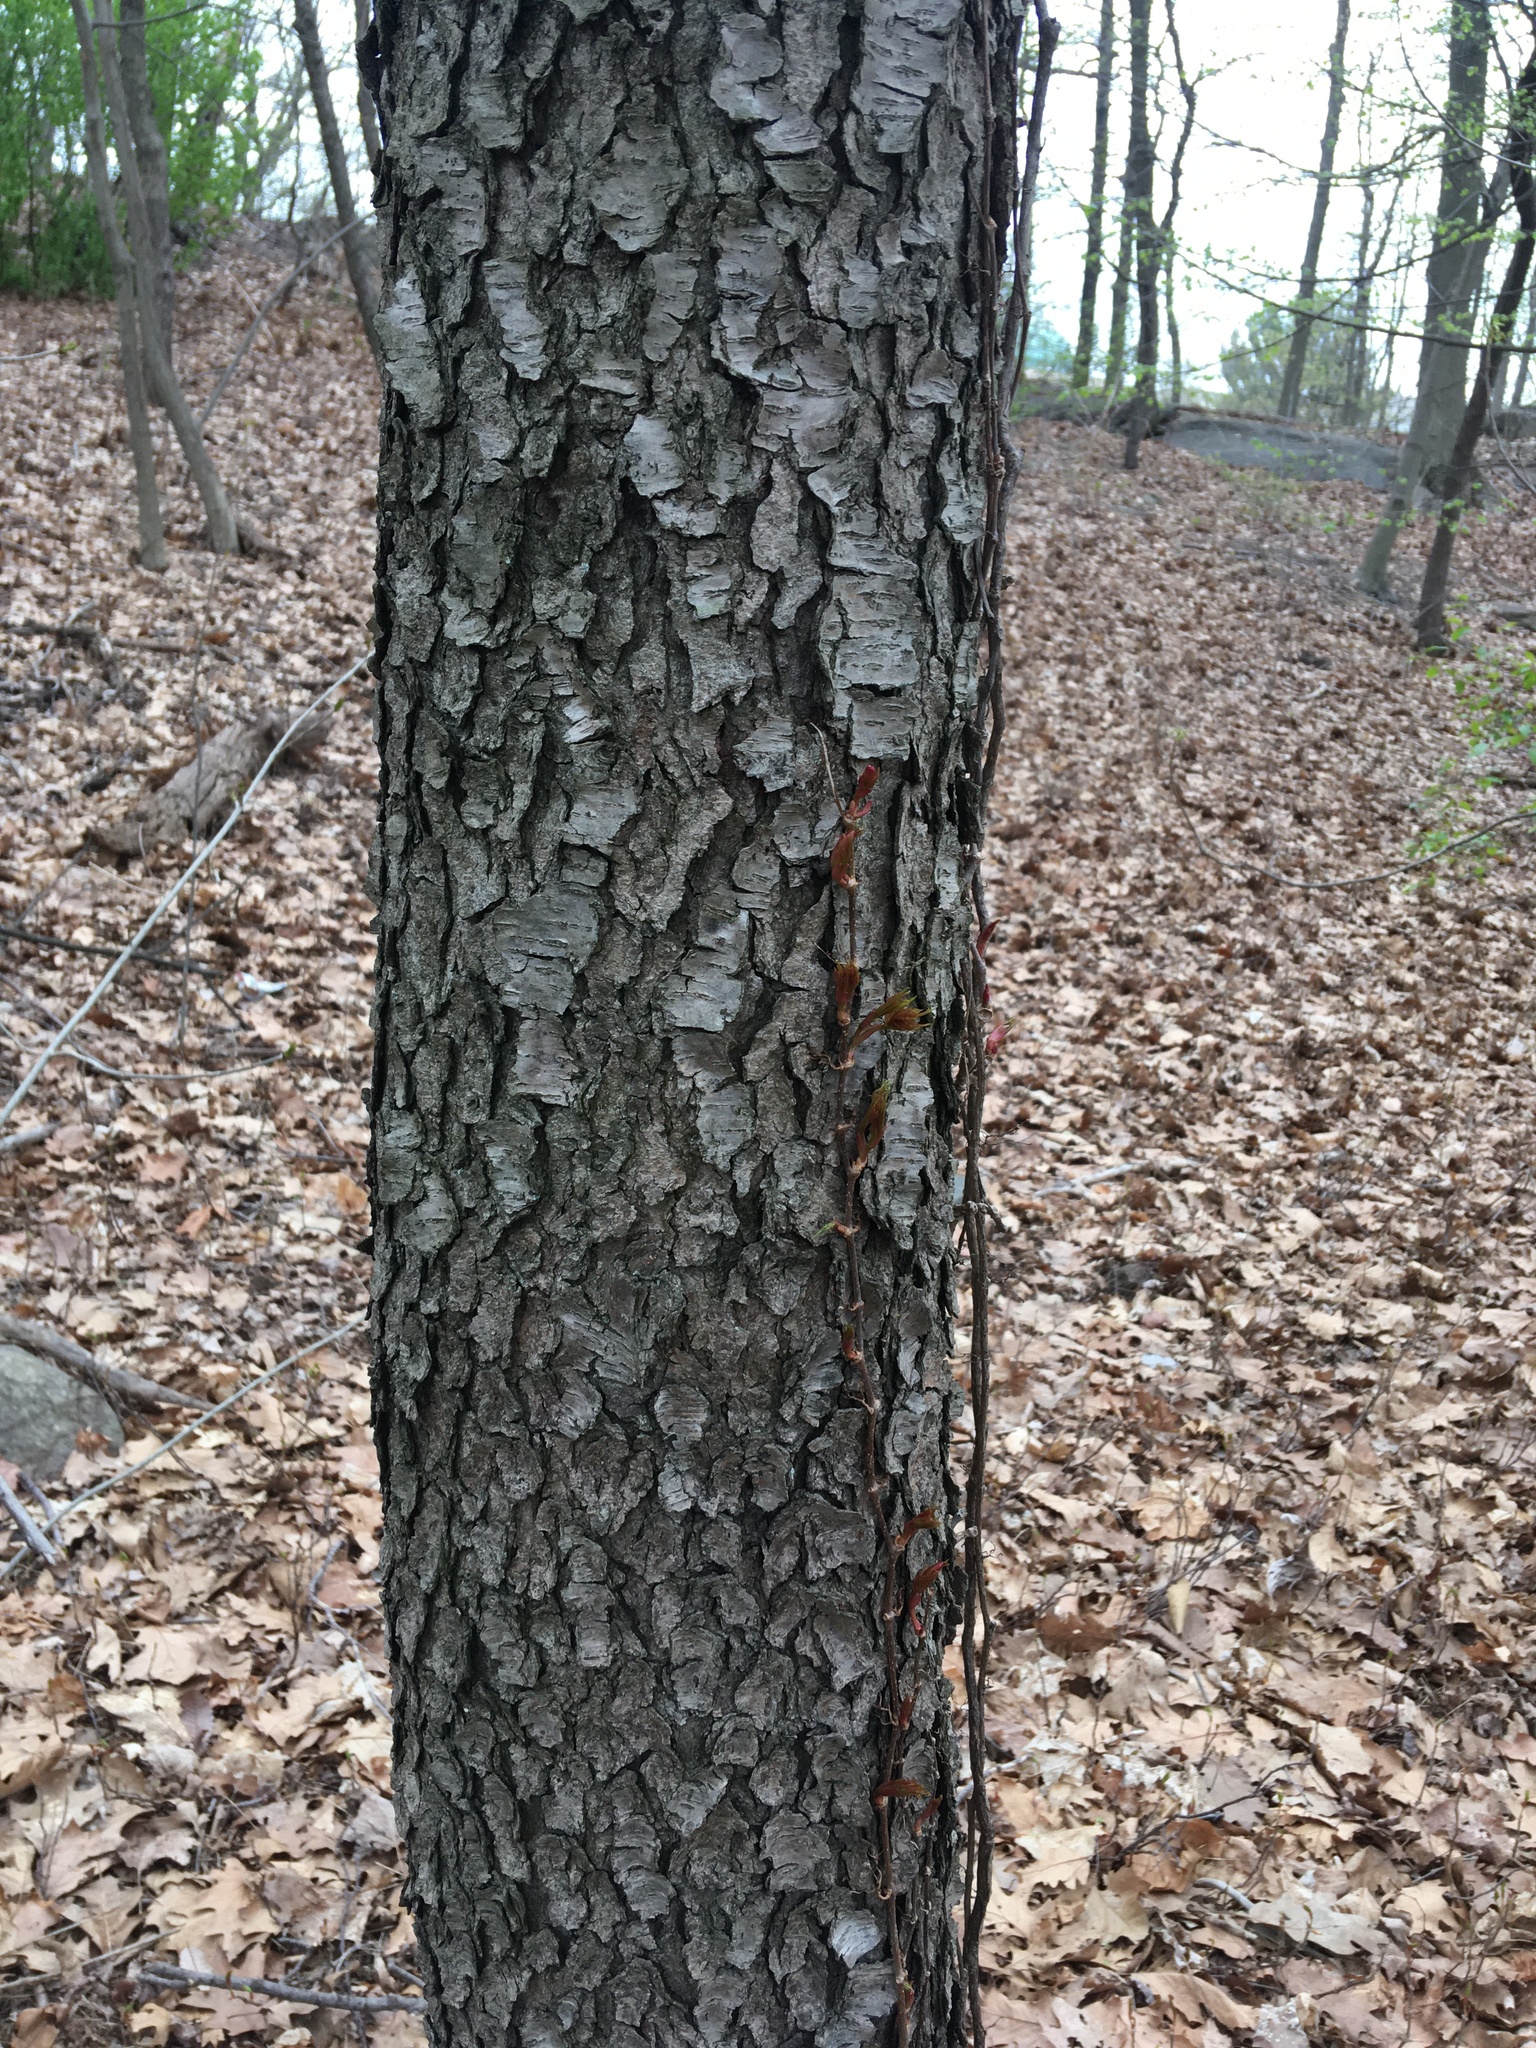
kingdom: Plantae
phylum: Tracheophyta
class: Magnoliopsida
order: Rosales
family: Rosaceae
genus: Prunus
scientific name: Prunus serotina
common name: Black cherry
